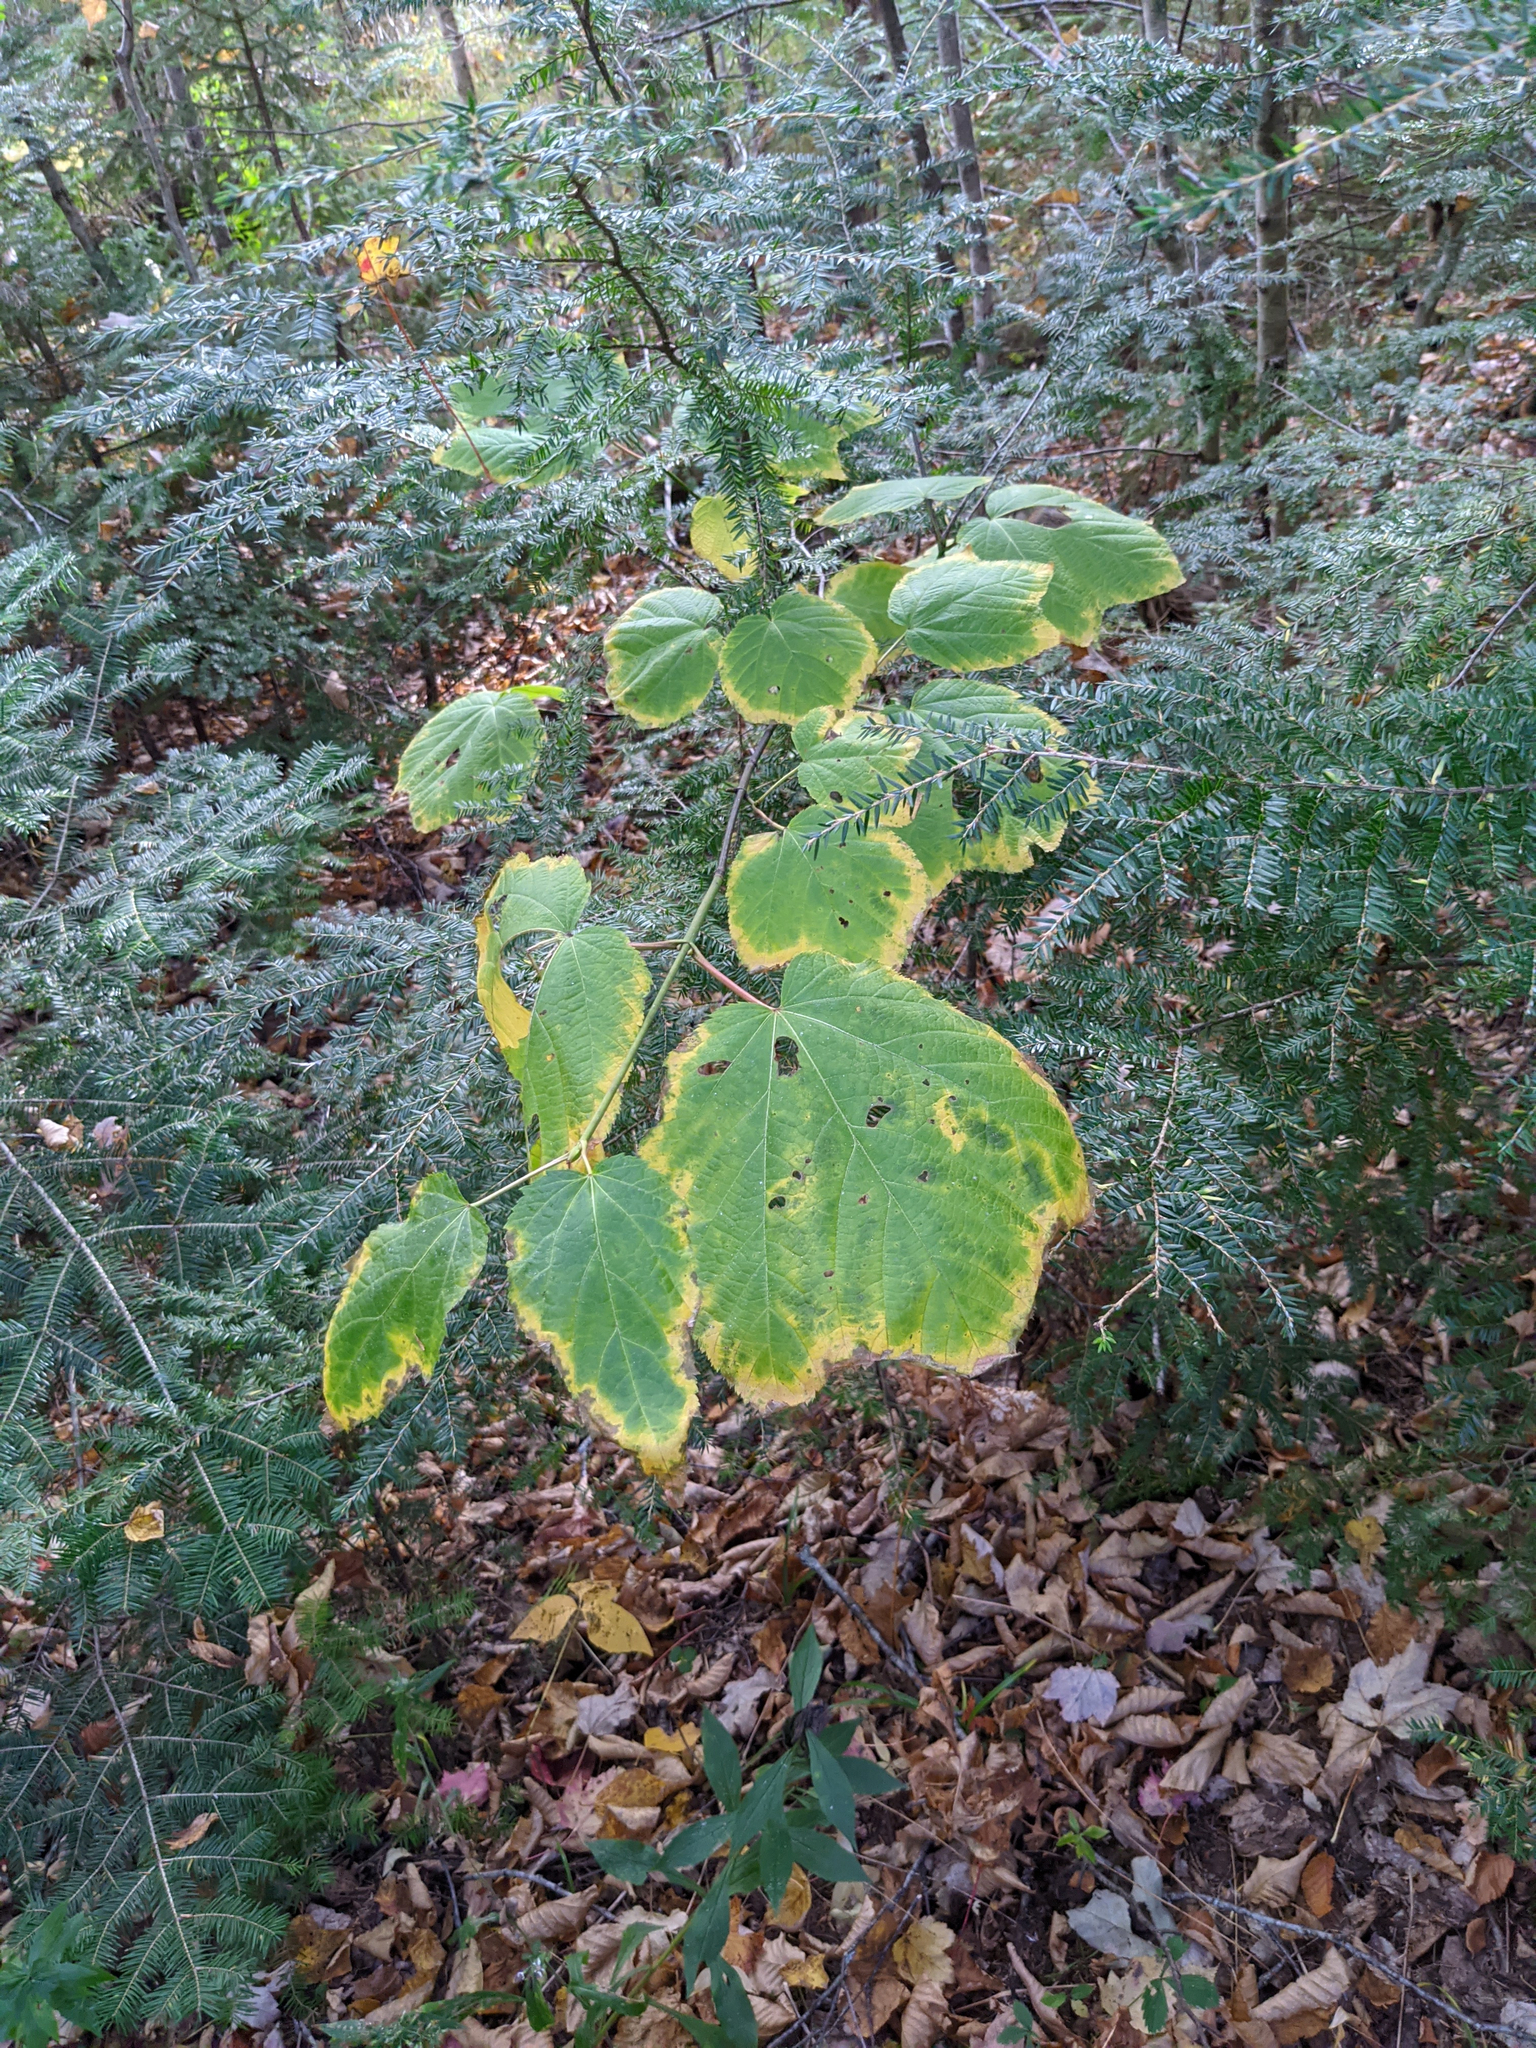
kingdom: Plantae
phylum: Tracheophyta
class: Magnoliopsida
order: Sapindales
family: Sapindaceae
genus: Acer
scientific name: Acer pensylvanicum
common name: Moosewood
